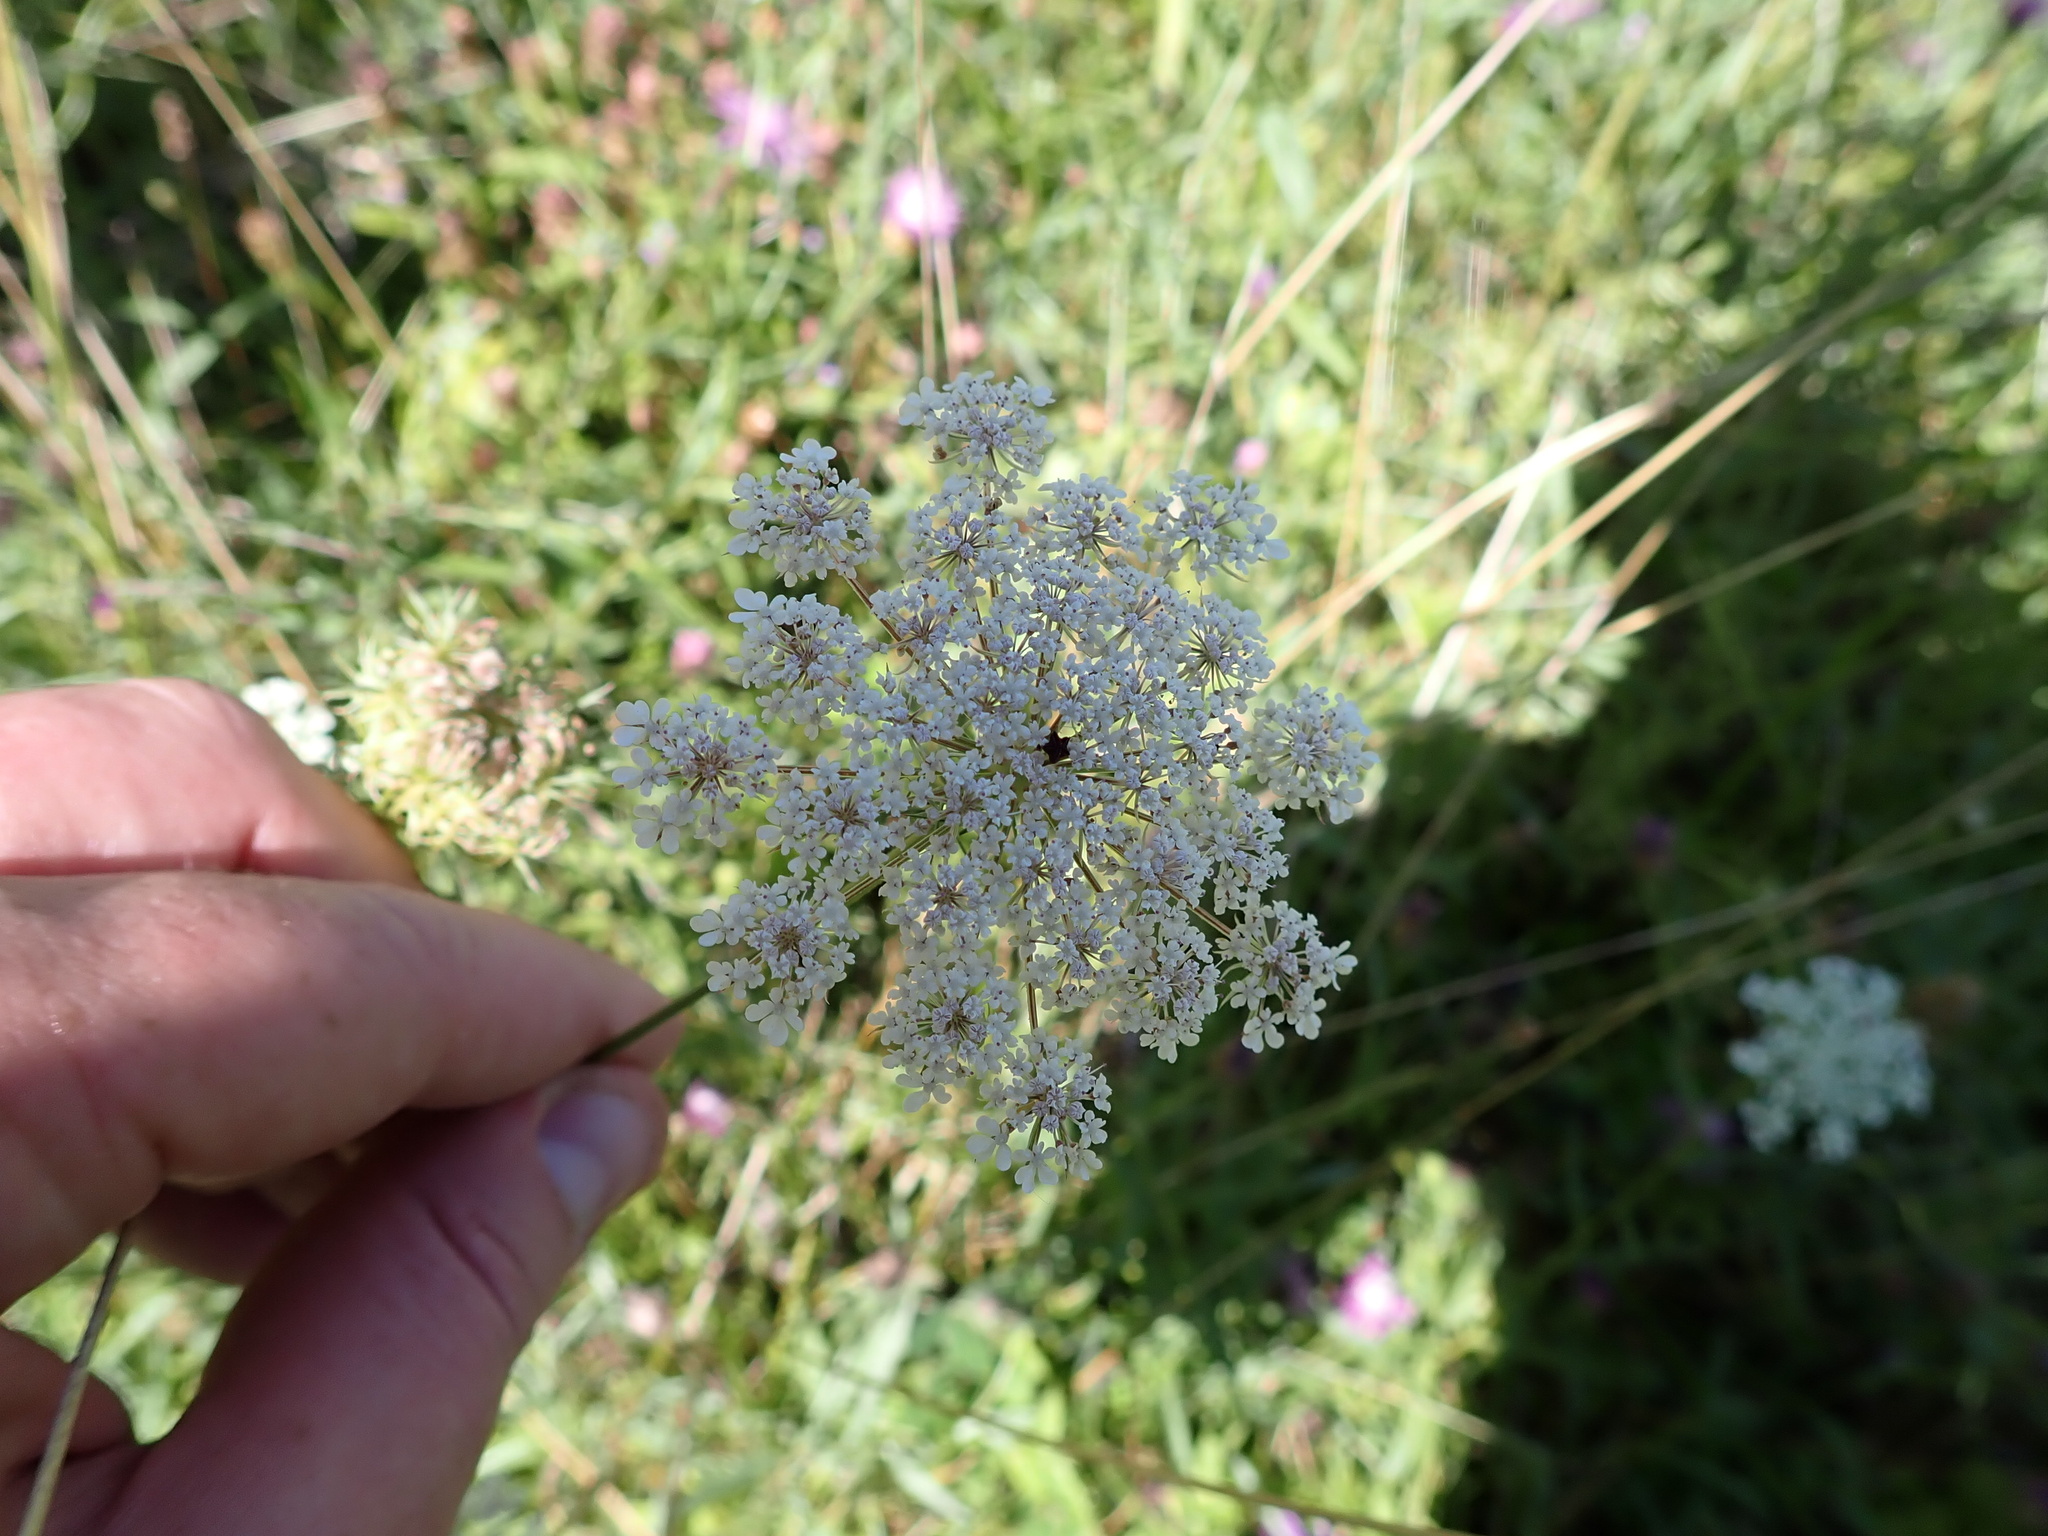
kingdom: Plantae
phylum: Tracheophyta
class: Magnoliopsida
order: Apiales
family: Apiaceae
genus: Daucus
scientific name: Daucus carota
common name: Wild carrot
